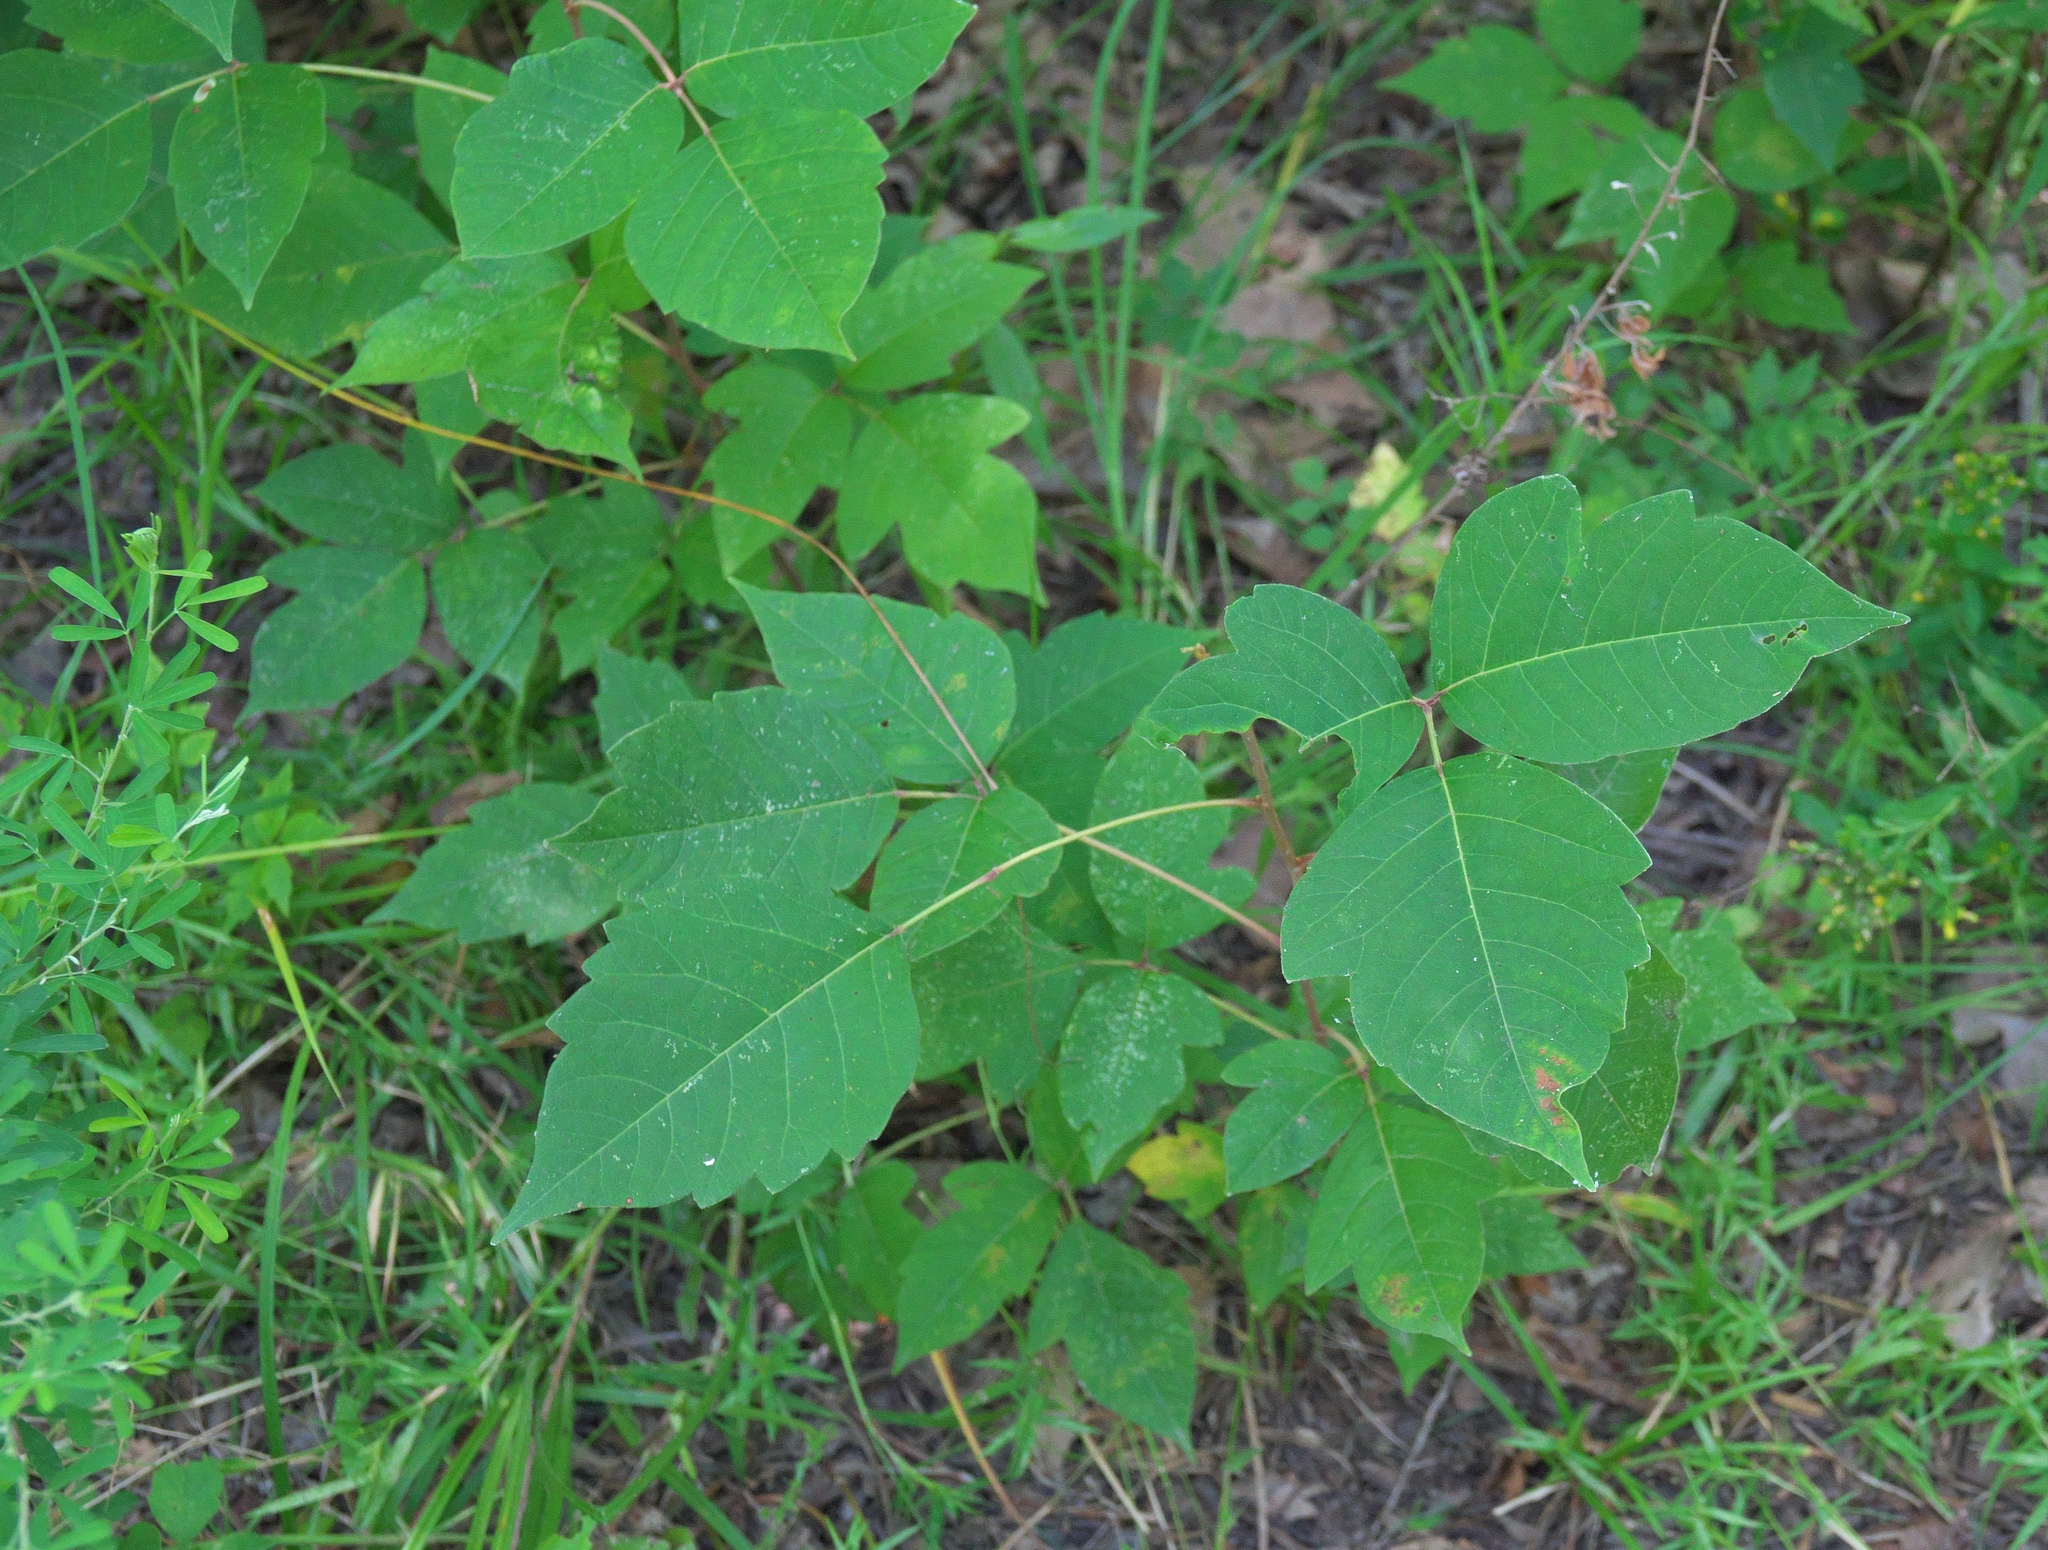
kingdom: Plantae
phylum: Tracheophyta
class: Magnoliopsida
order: Sapindales
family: Anacardiaceae
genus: Toxicodendron
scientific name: Toxicodendron radicans
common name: Poison ivy
